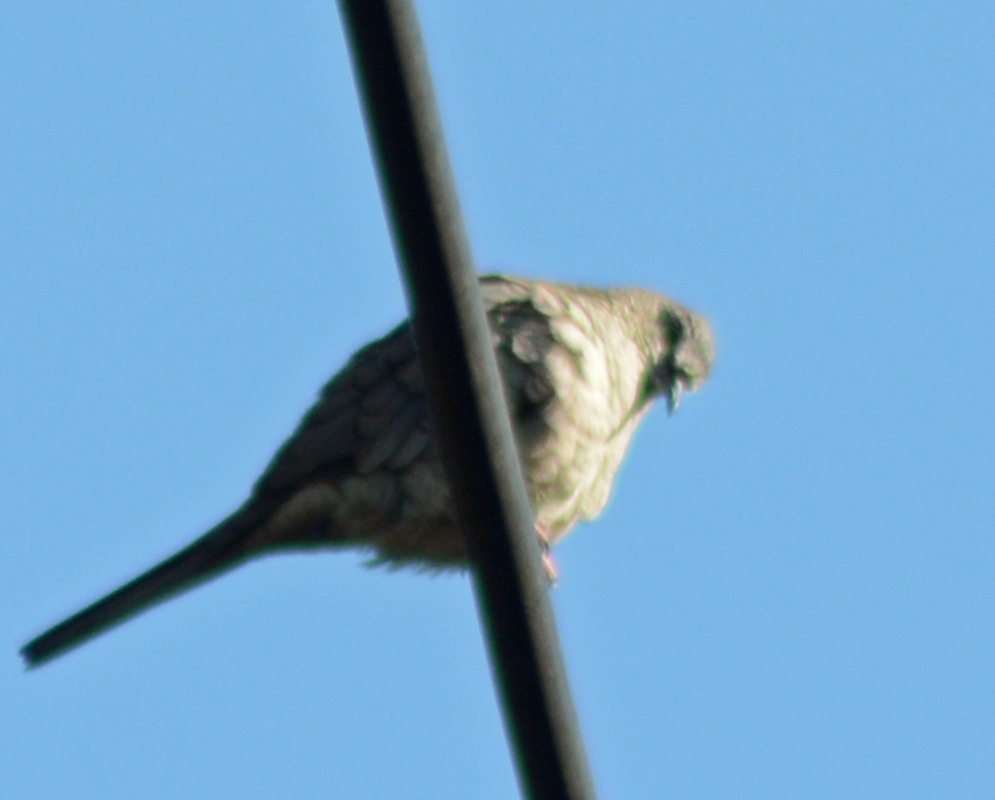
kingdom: Animalia
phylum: Chordata
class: Aves
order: Columbiformes
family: Columbidae
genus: Columbina
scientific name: Columbina inca
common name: Inca dove
